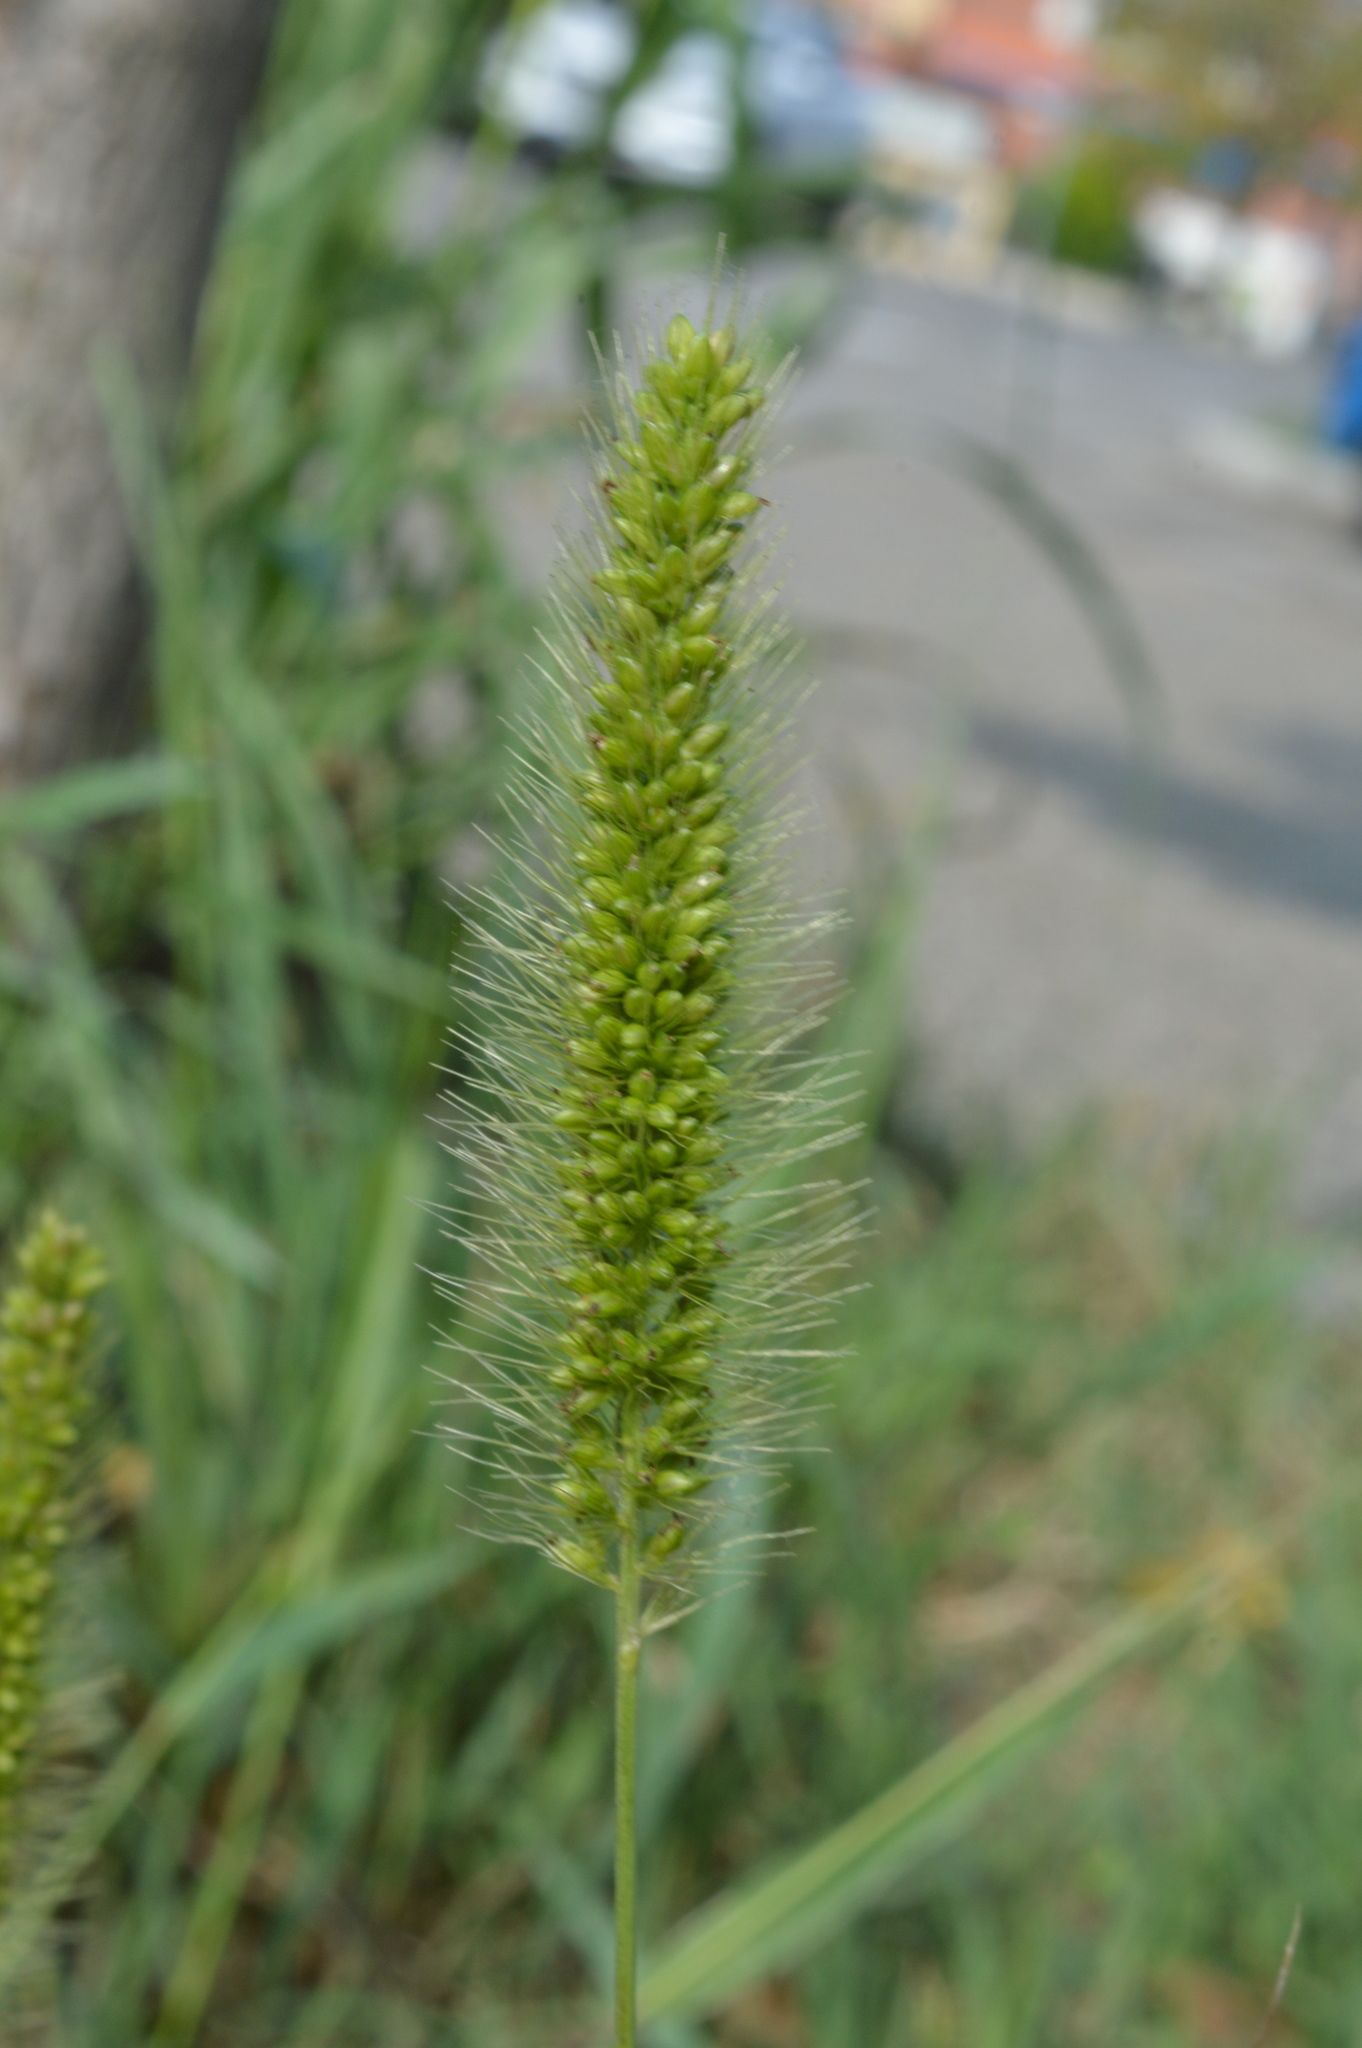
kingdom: Plantae
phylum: Tracheophyta
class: Liliopsida
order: Poales
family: Poaceae
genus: Setaria
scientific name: Setaria viridis
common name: Green bristlegrass
